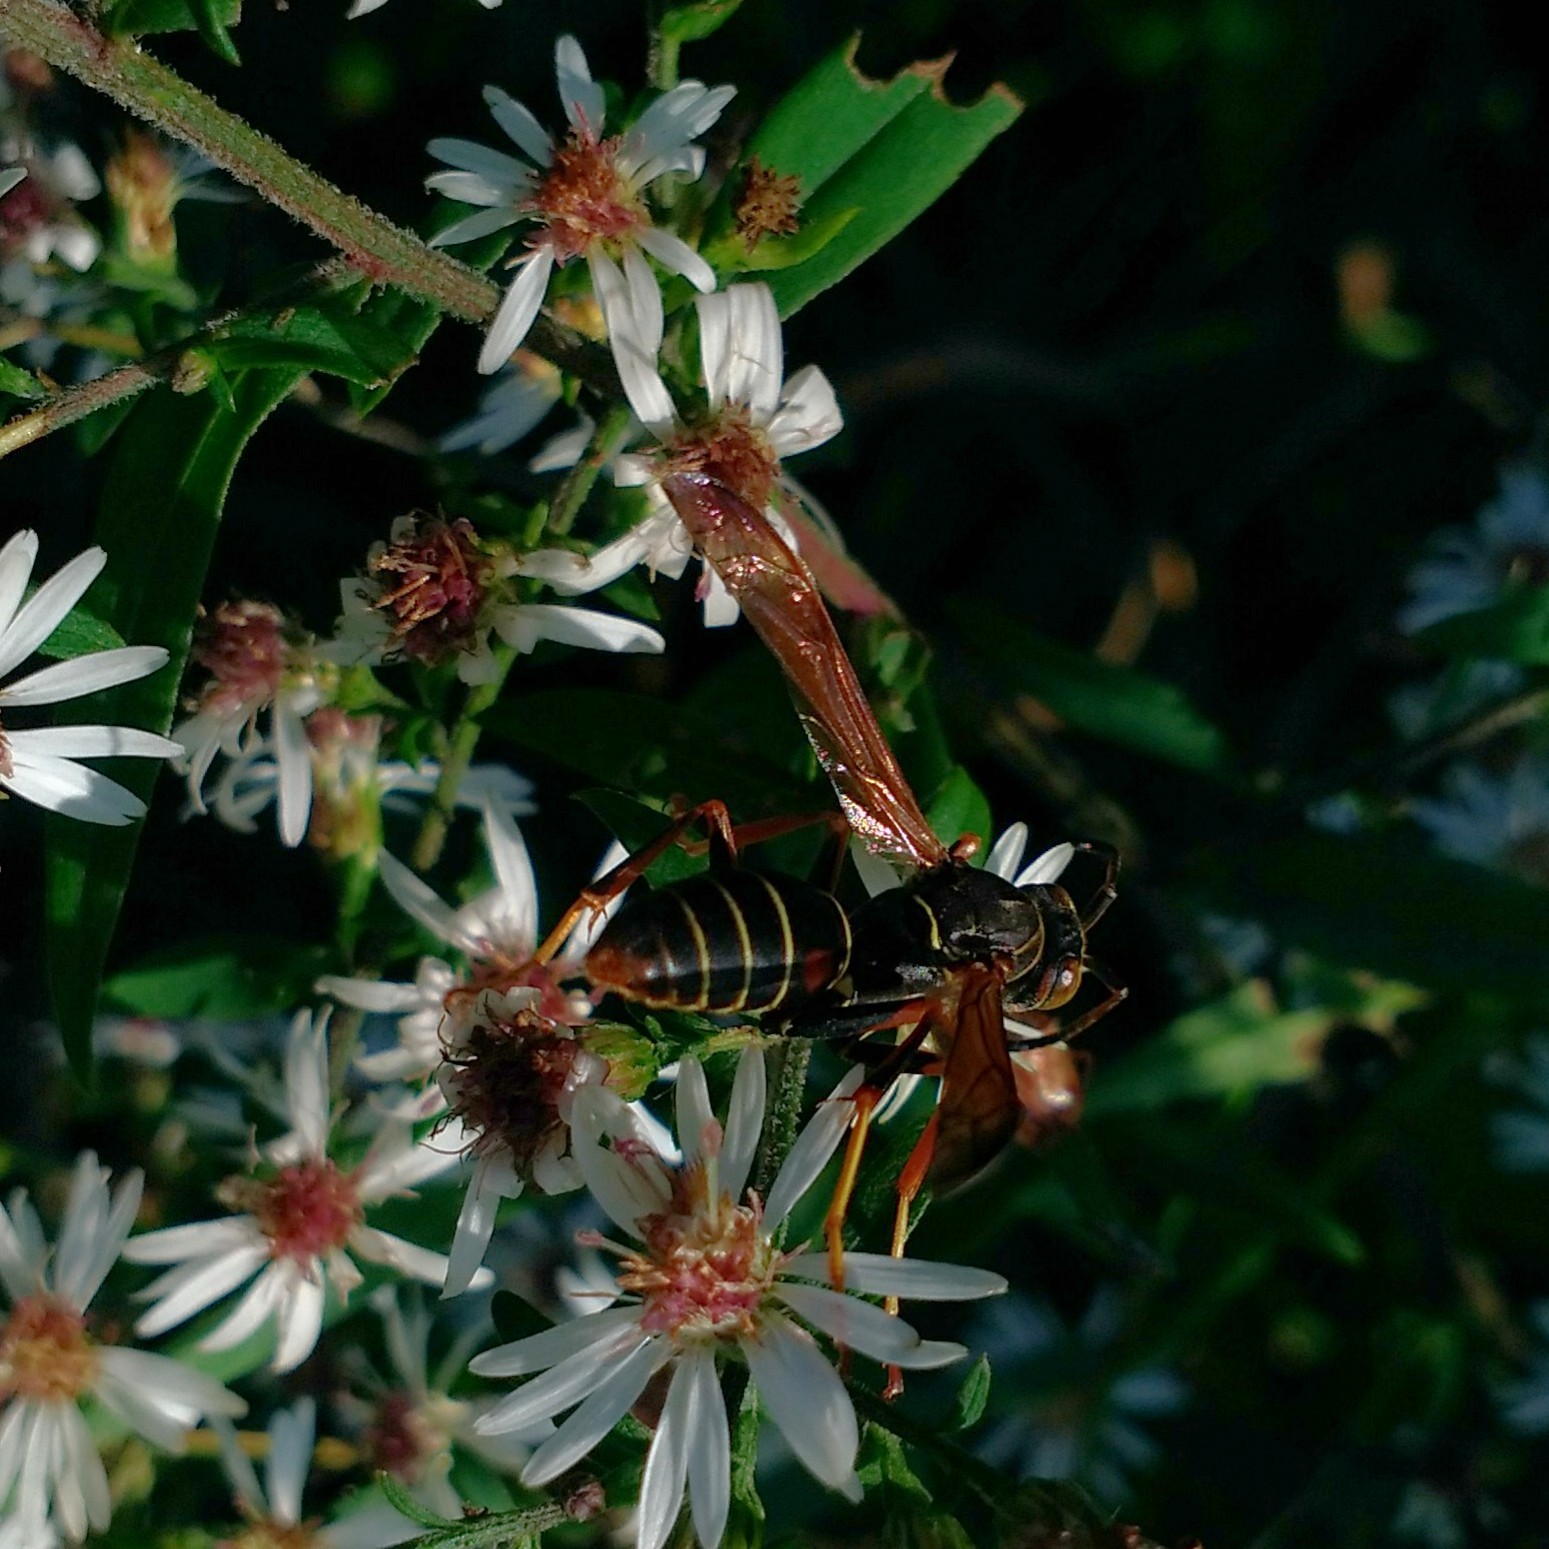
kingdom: Animalia
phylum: Arthropoda
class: Insecta
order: Hymenoptera
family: Eumenidae
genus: Polistes
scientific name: Polistes fuscatus
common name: Dark paper wasp
